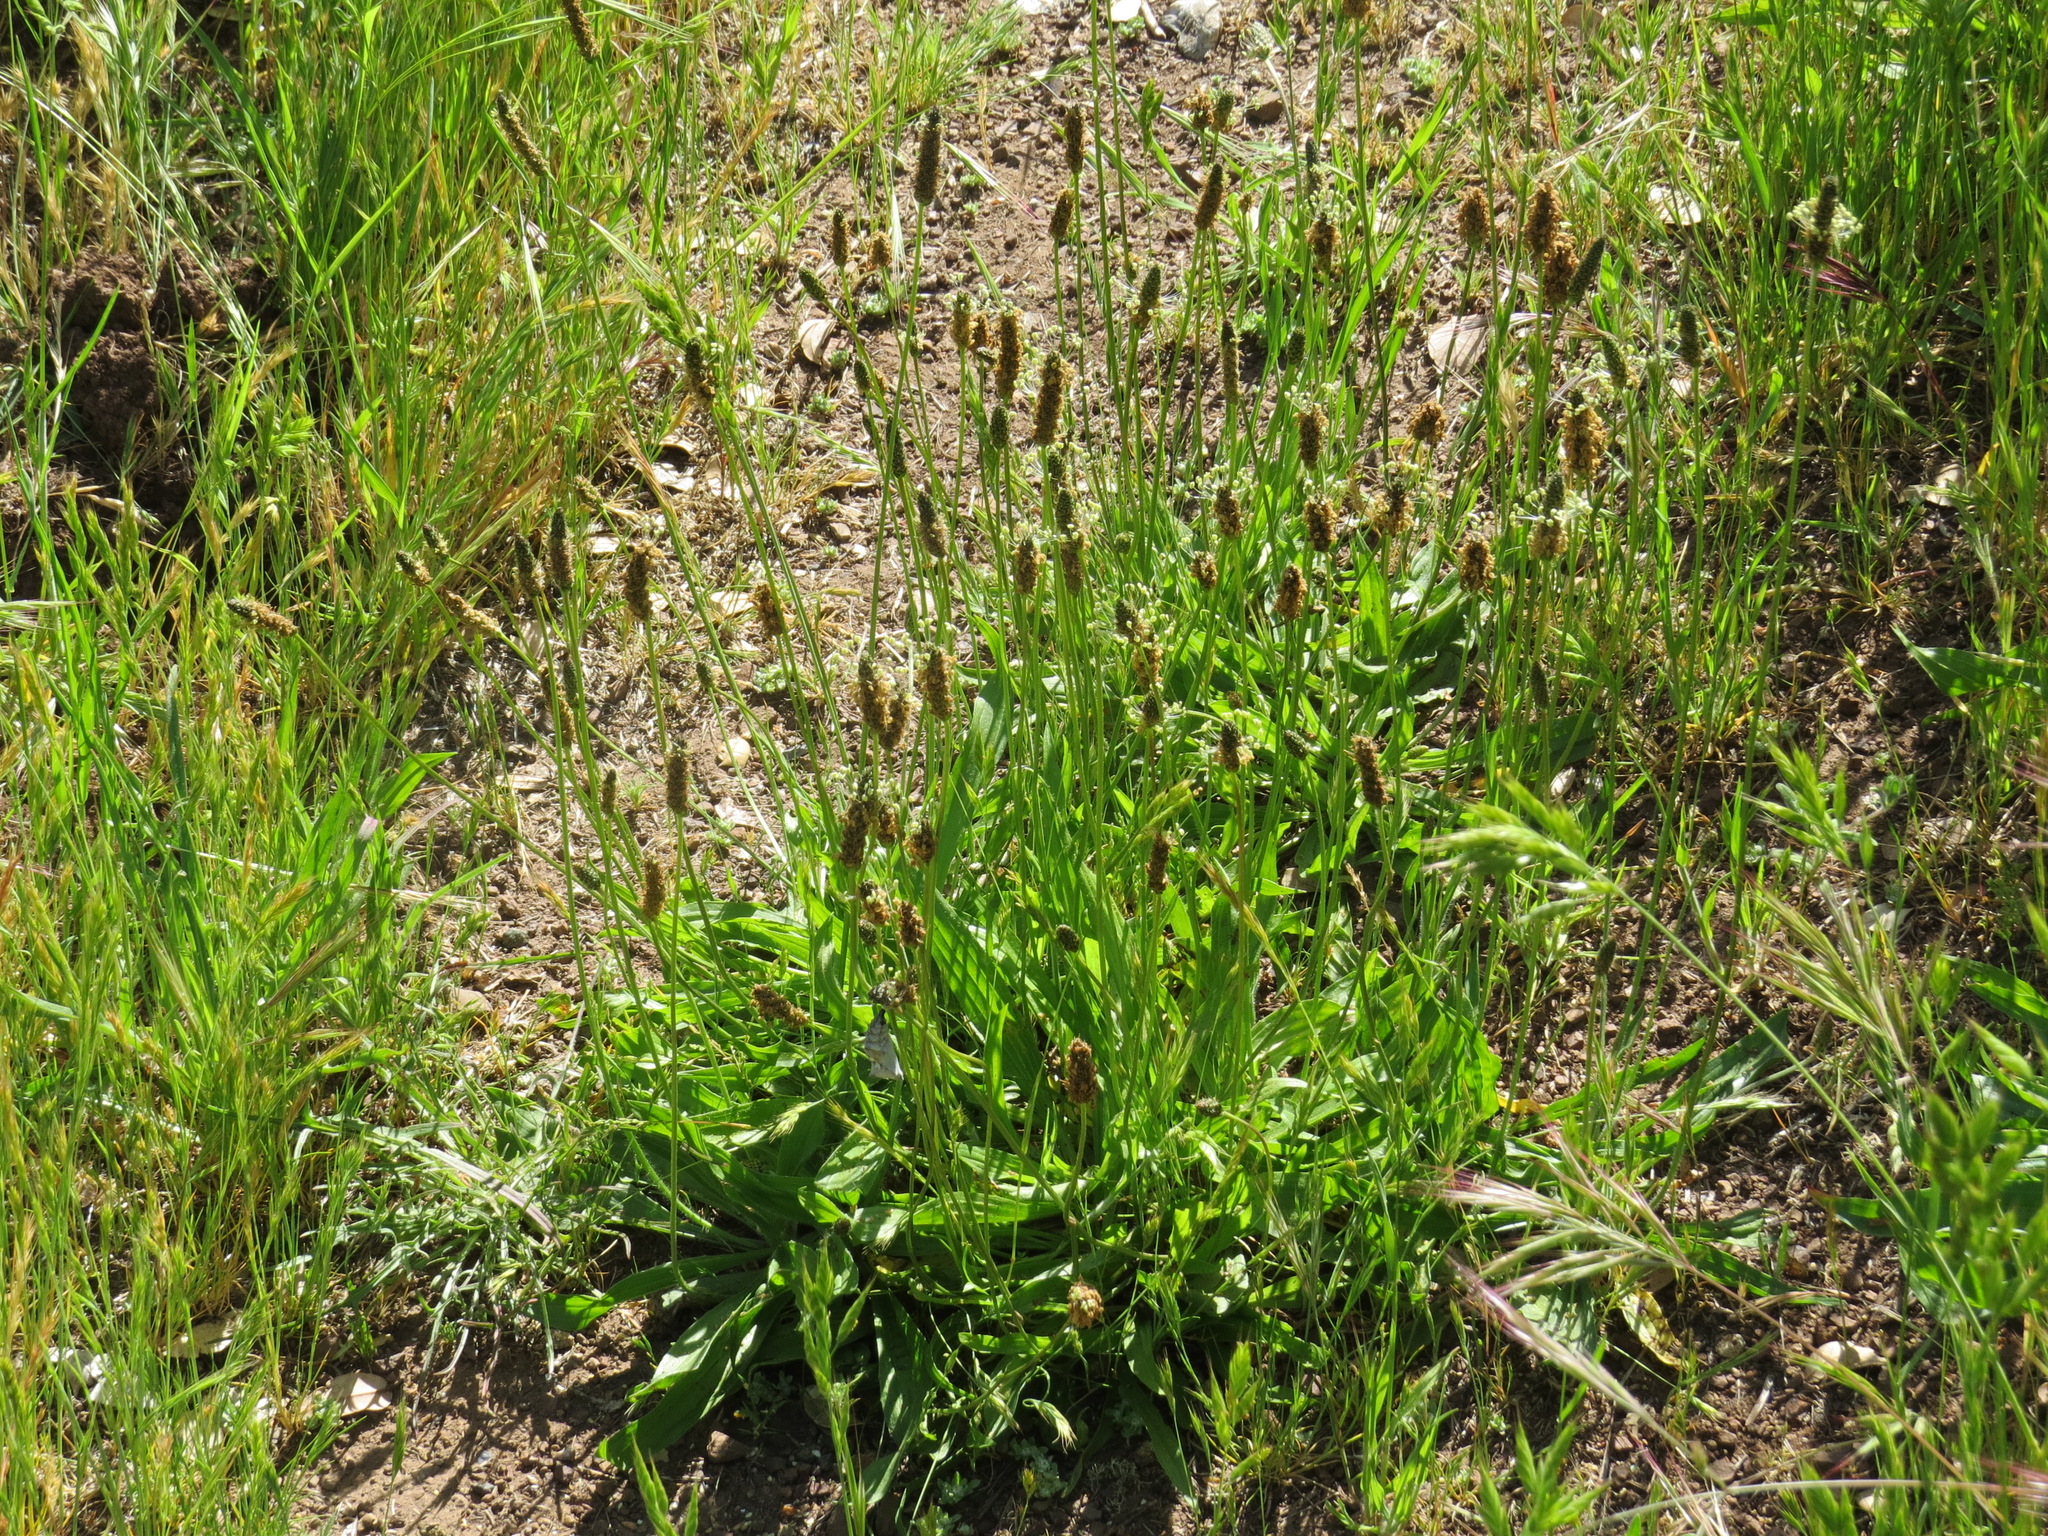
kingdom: Plantae
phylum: Tracheophyta
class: Magnoliopsida
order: Lamiales
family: Plantaginaceae
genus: Plantago
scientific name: Plantago lanceolata
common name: Ribwort plantain
